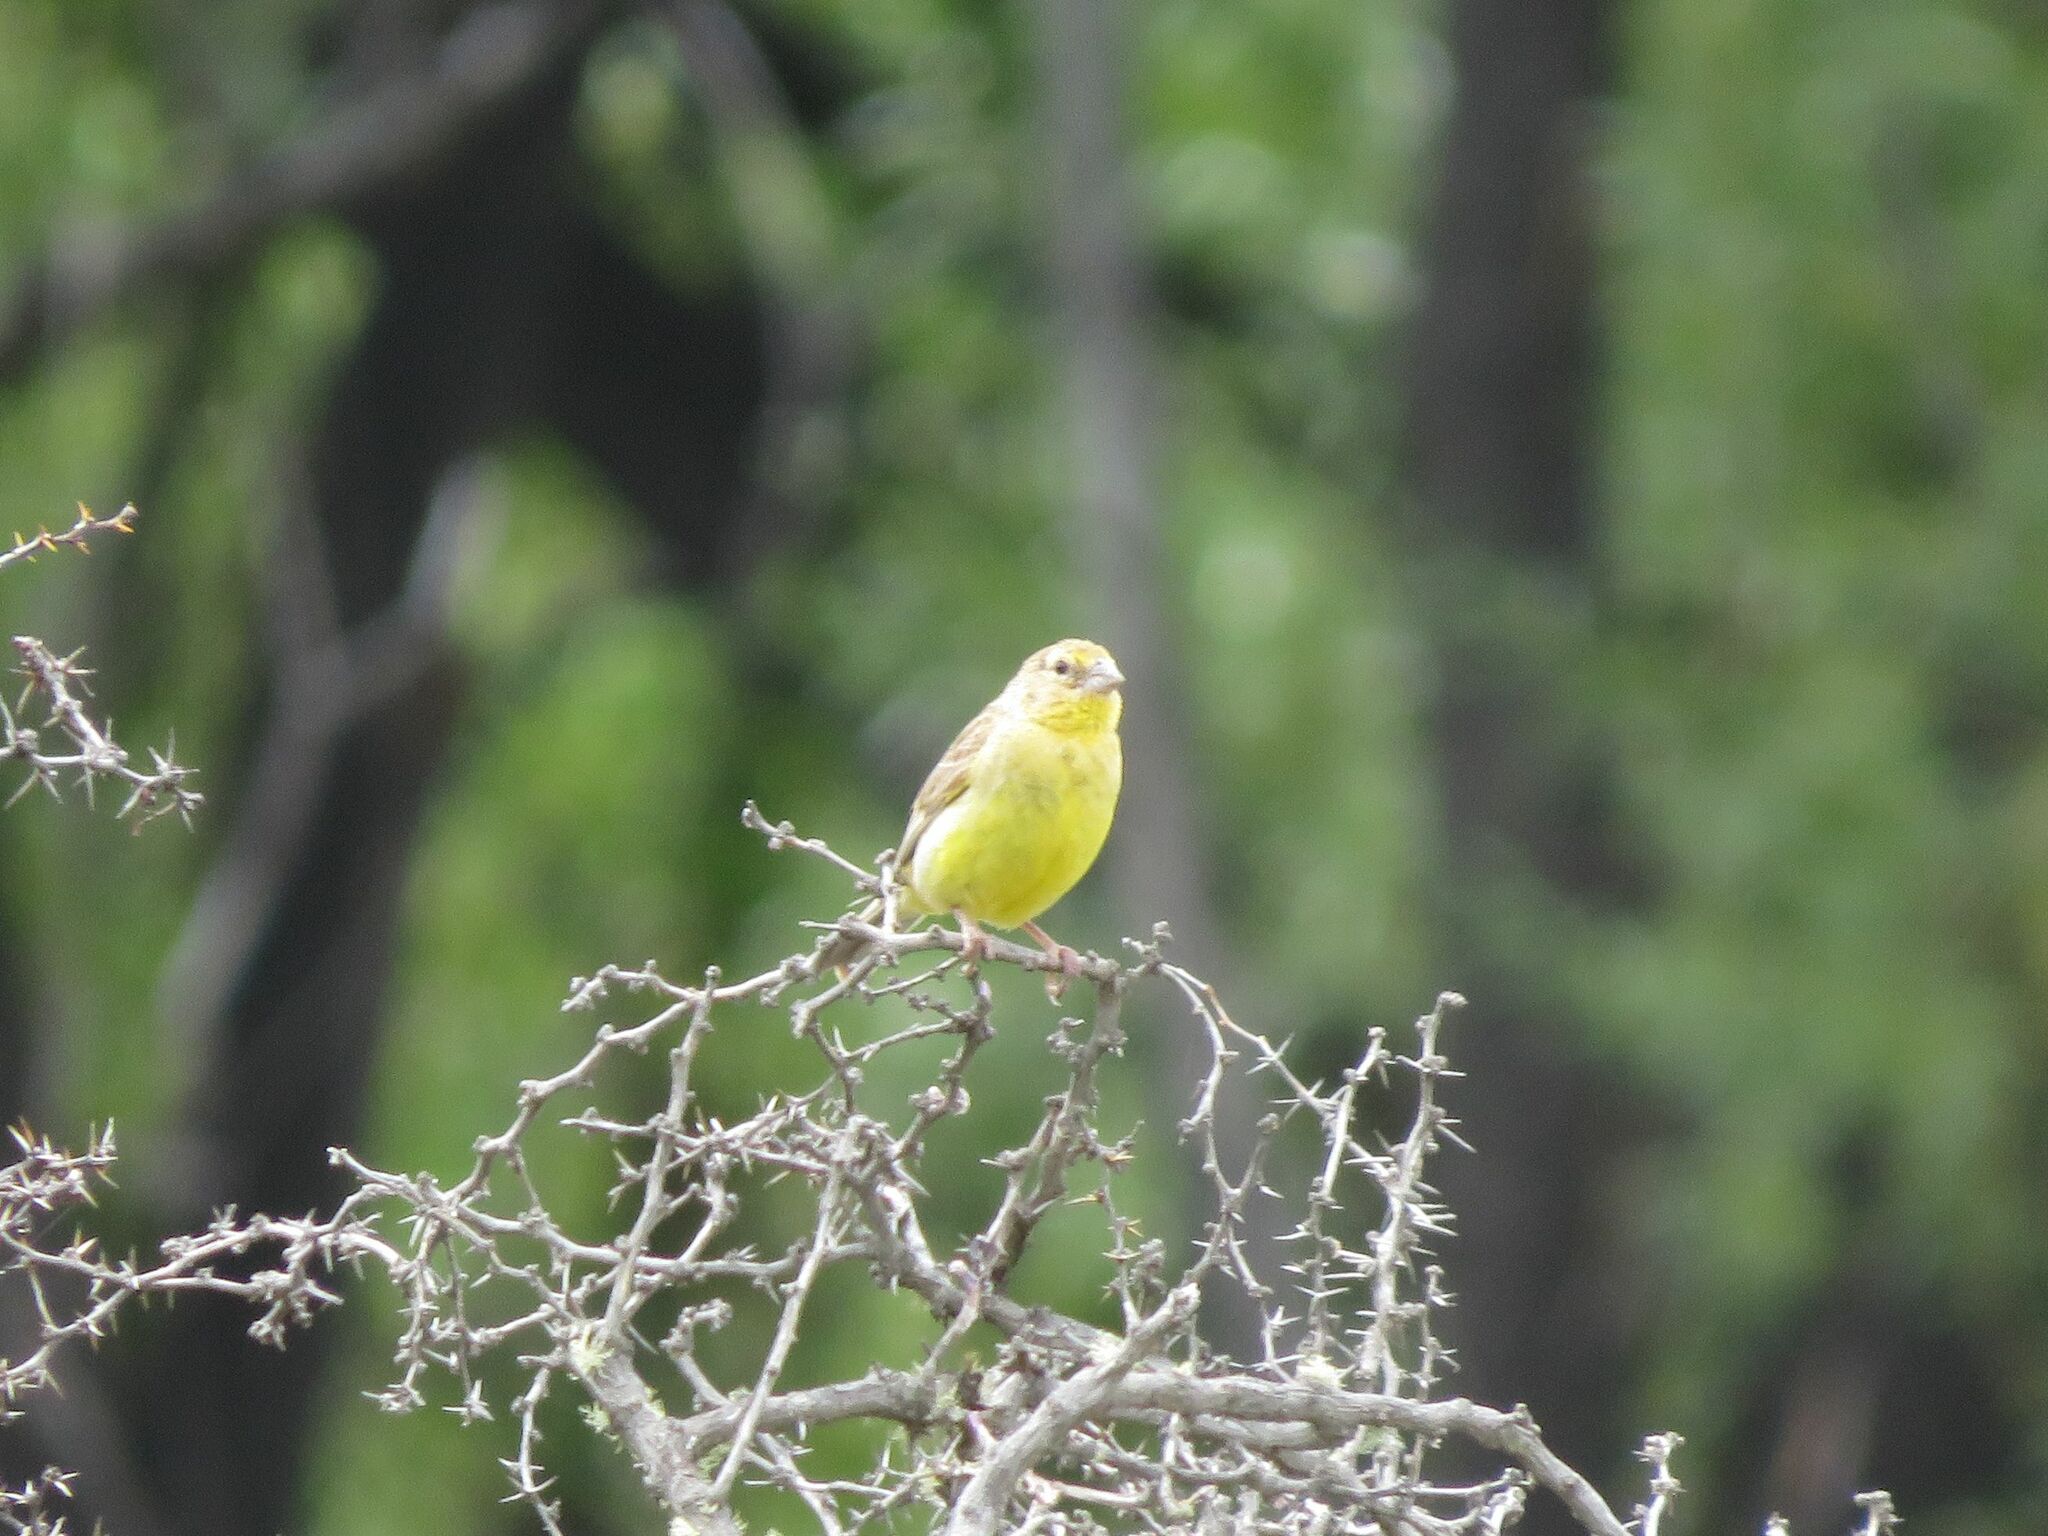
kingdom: Animalia
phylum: Chordata
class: Aves
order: Passeriformes
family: Thraupidae
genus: Sicalis
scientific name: Sicalis luteola
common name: Grassland yellow-finch
